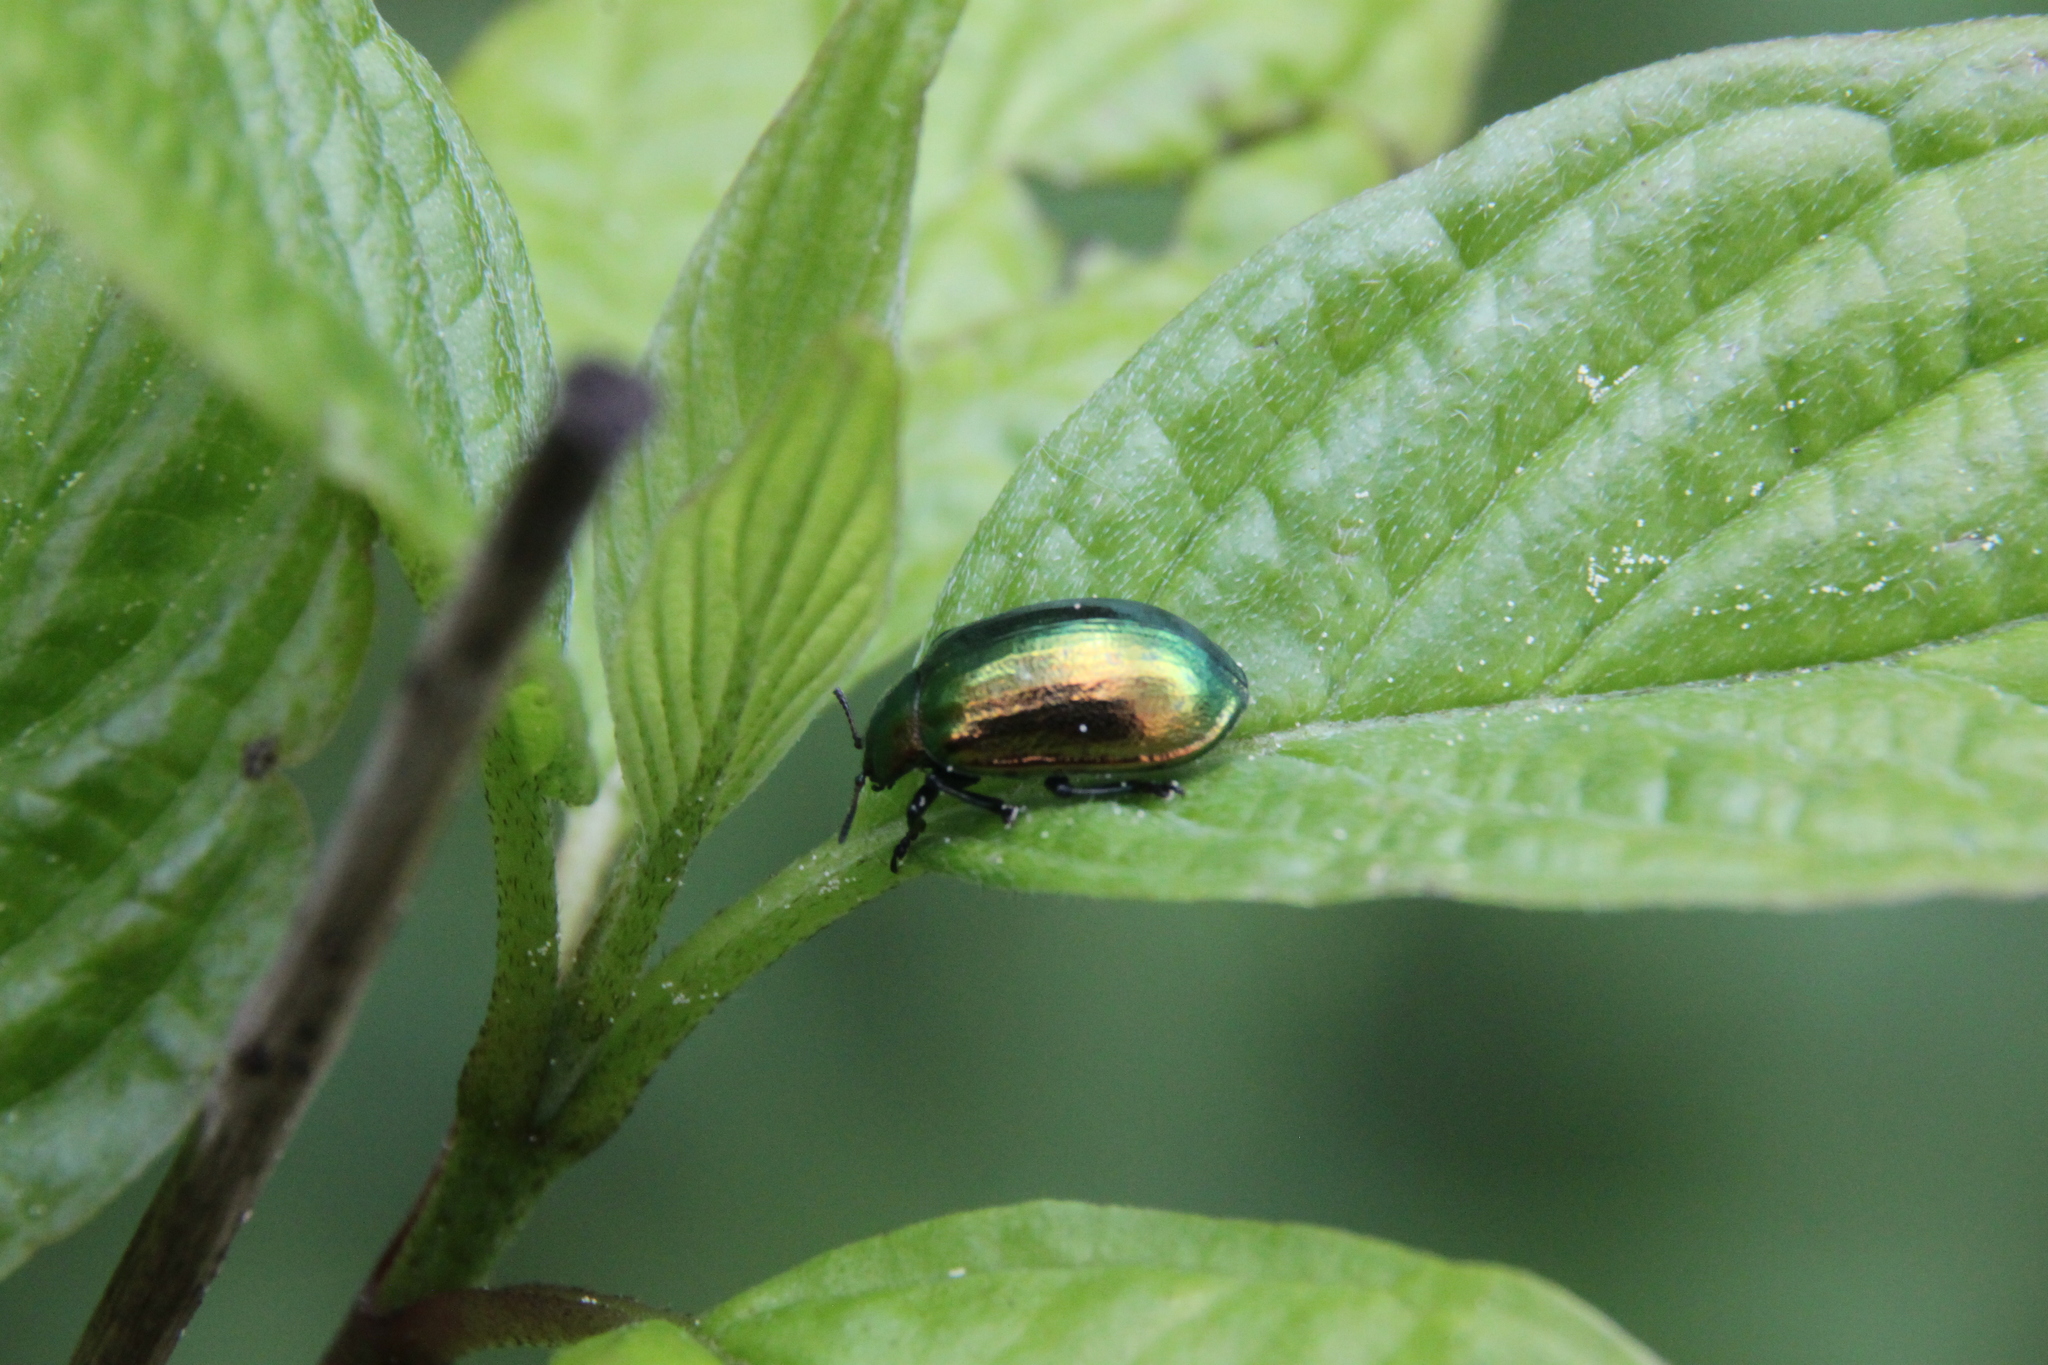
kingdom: Animalia
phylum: Arthropoda
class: Insecta
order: Coleoptera
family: Chrysomelidae
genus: Plagiosterna
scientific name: Plagiosterna aenea
